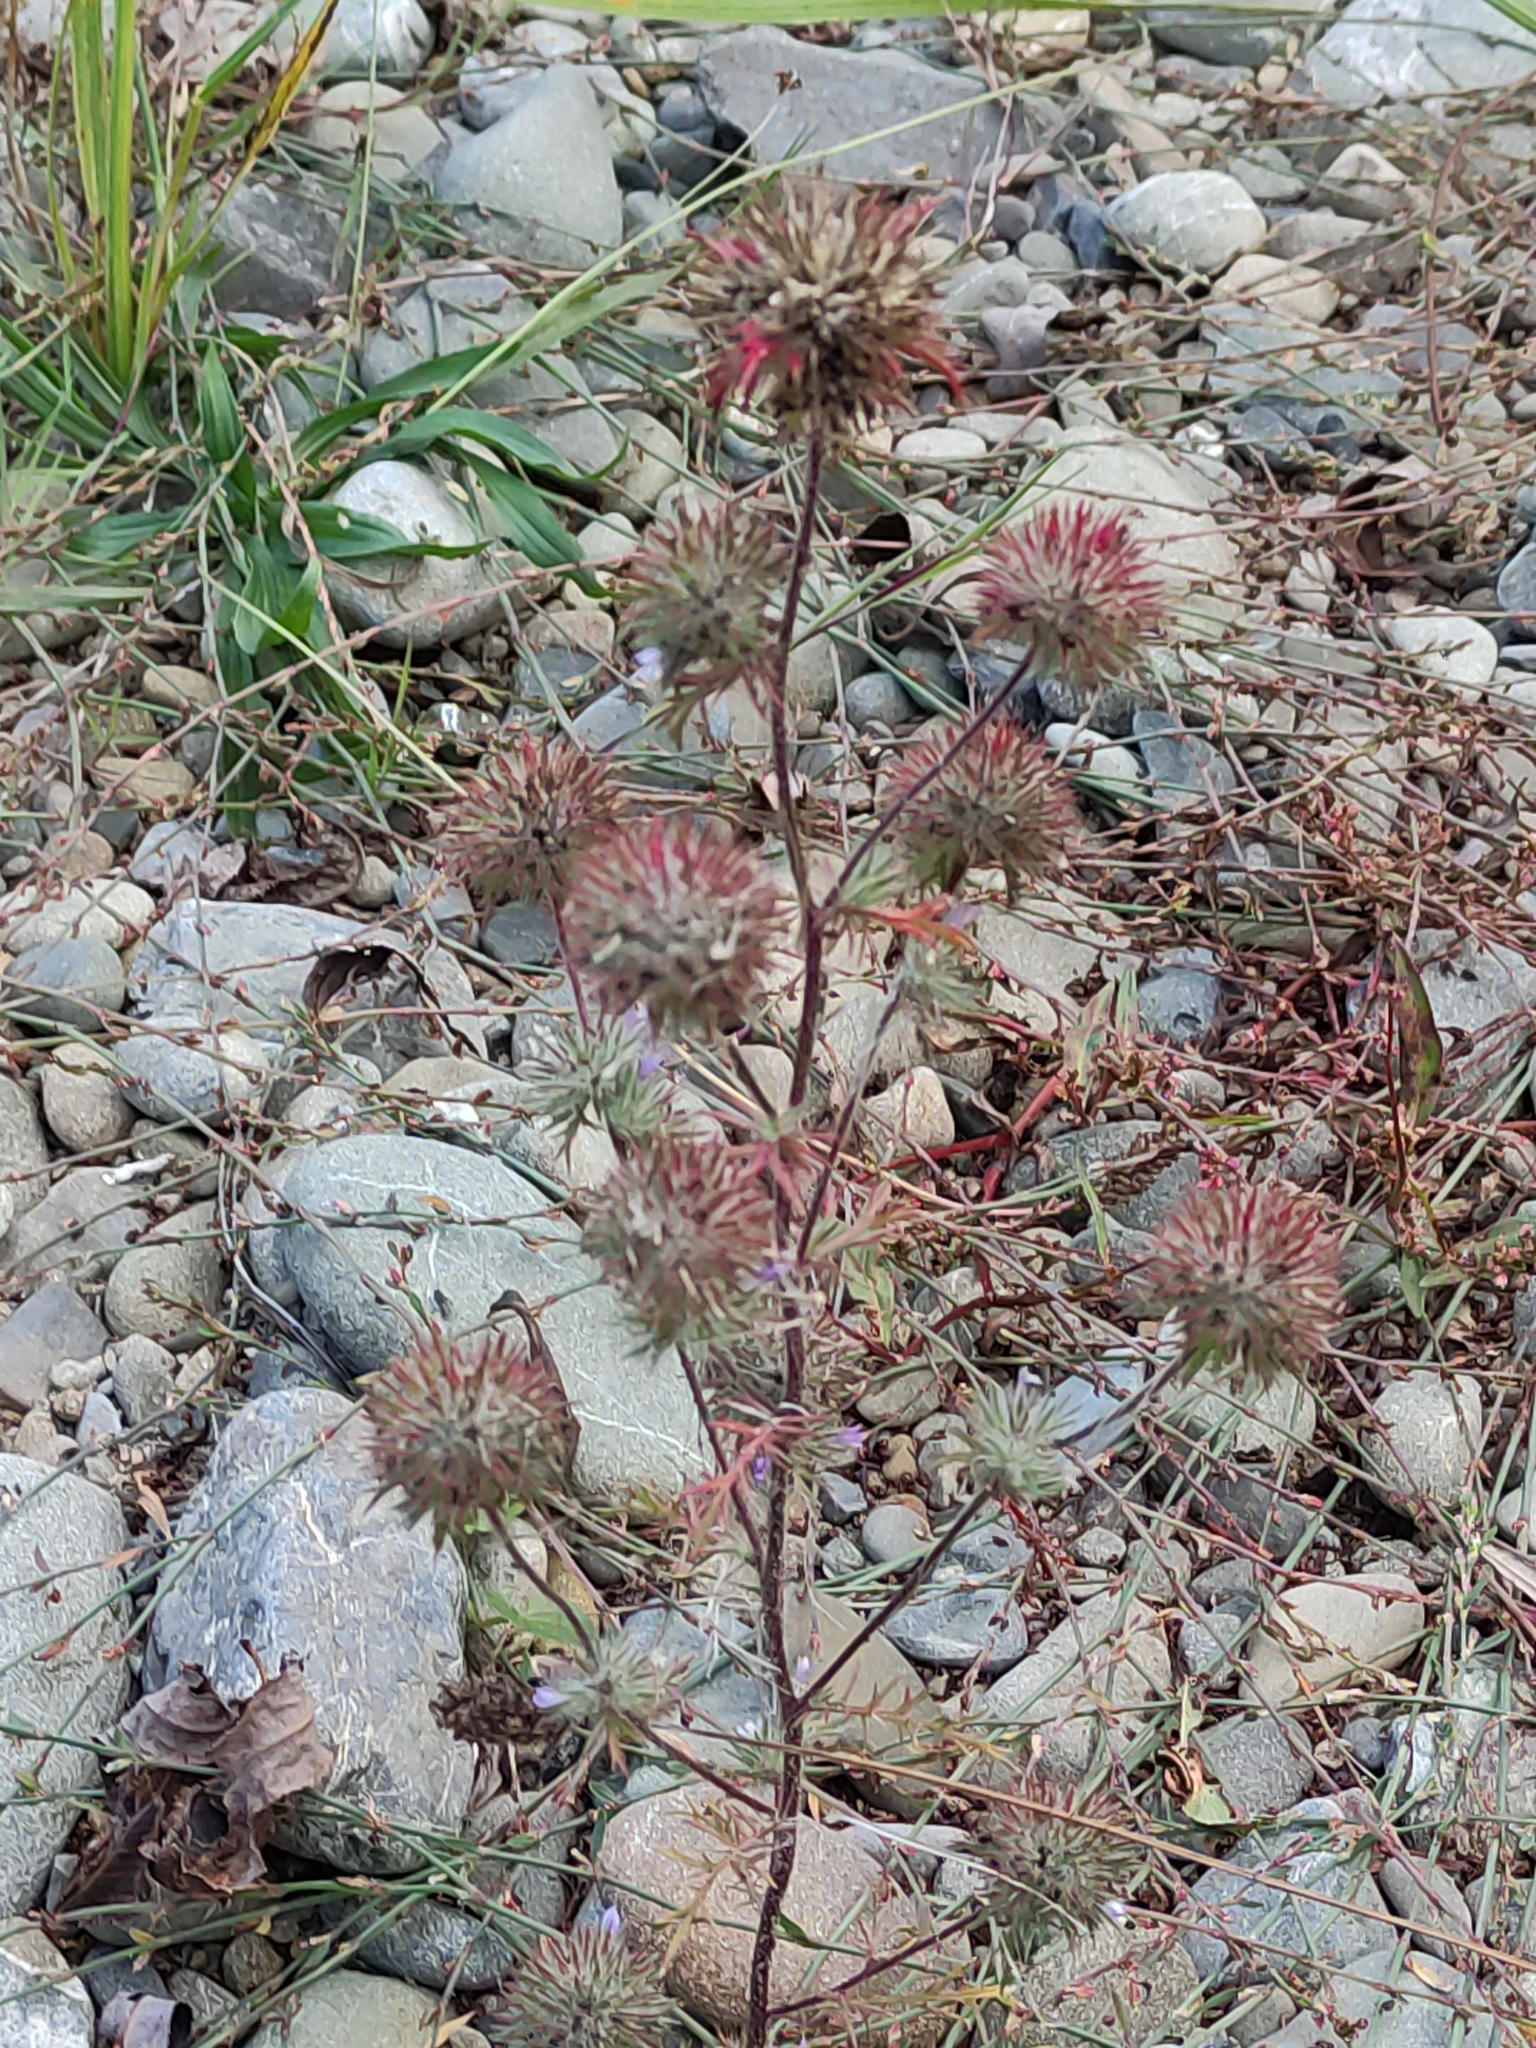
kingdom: Plantae
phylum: Tracheophyta
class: Magnoliopsida
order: Ericales
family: Polemoniaceae
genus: Navarretia
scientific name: Navarretia squarrosa
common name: Skunkweed
